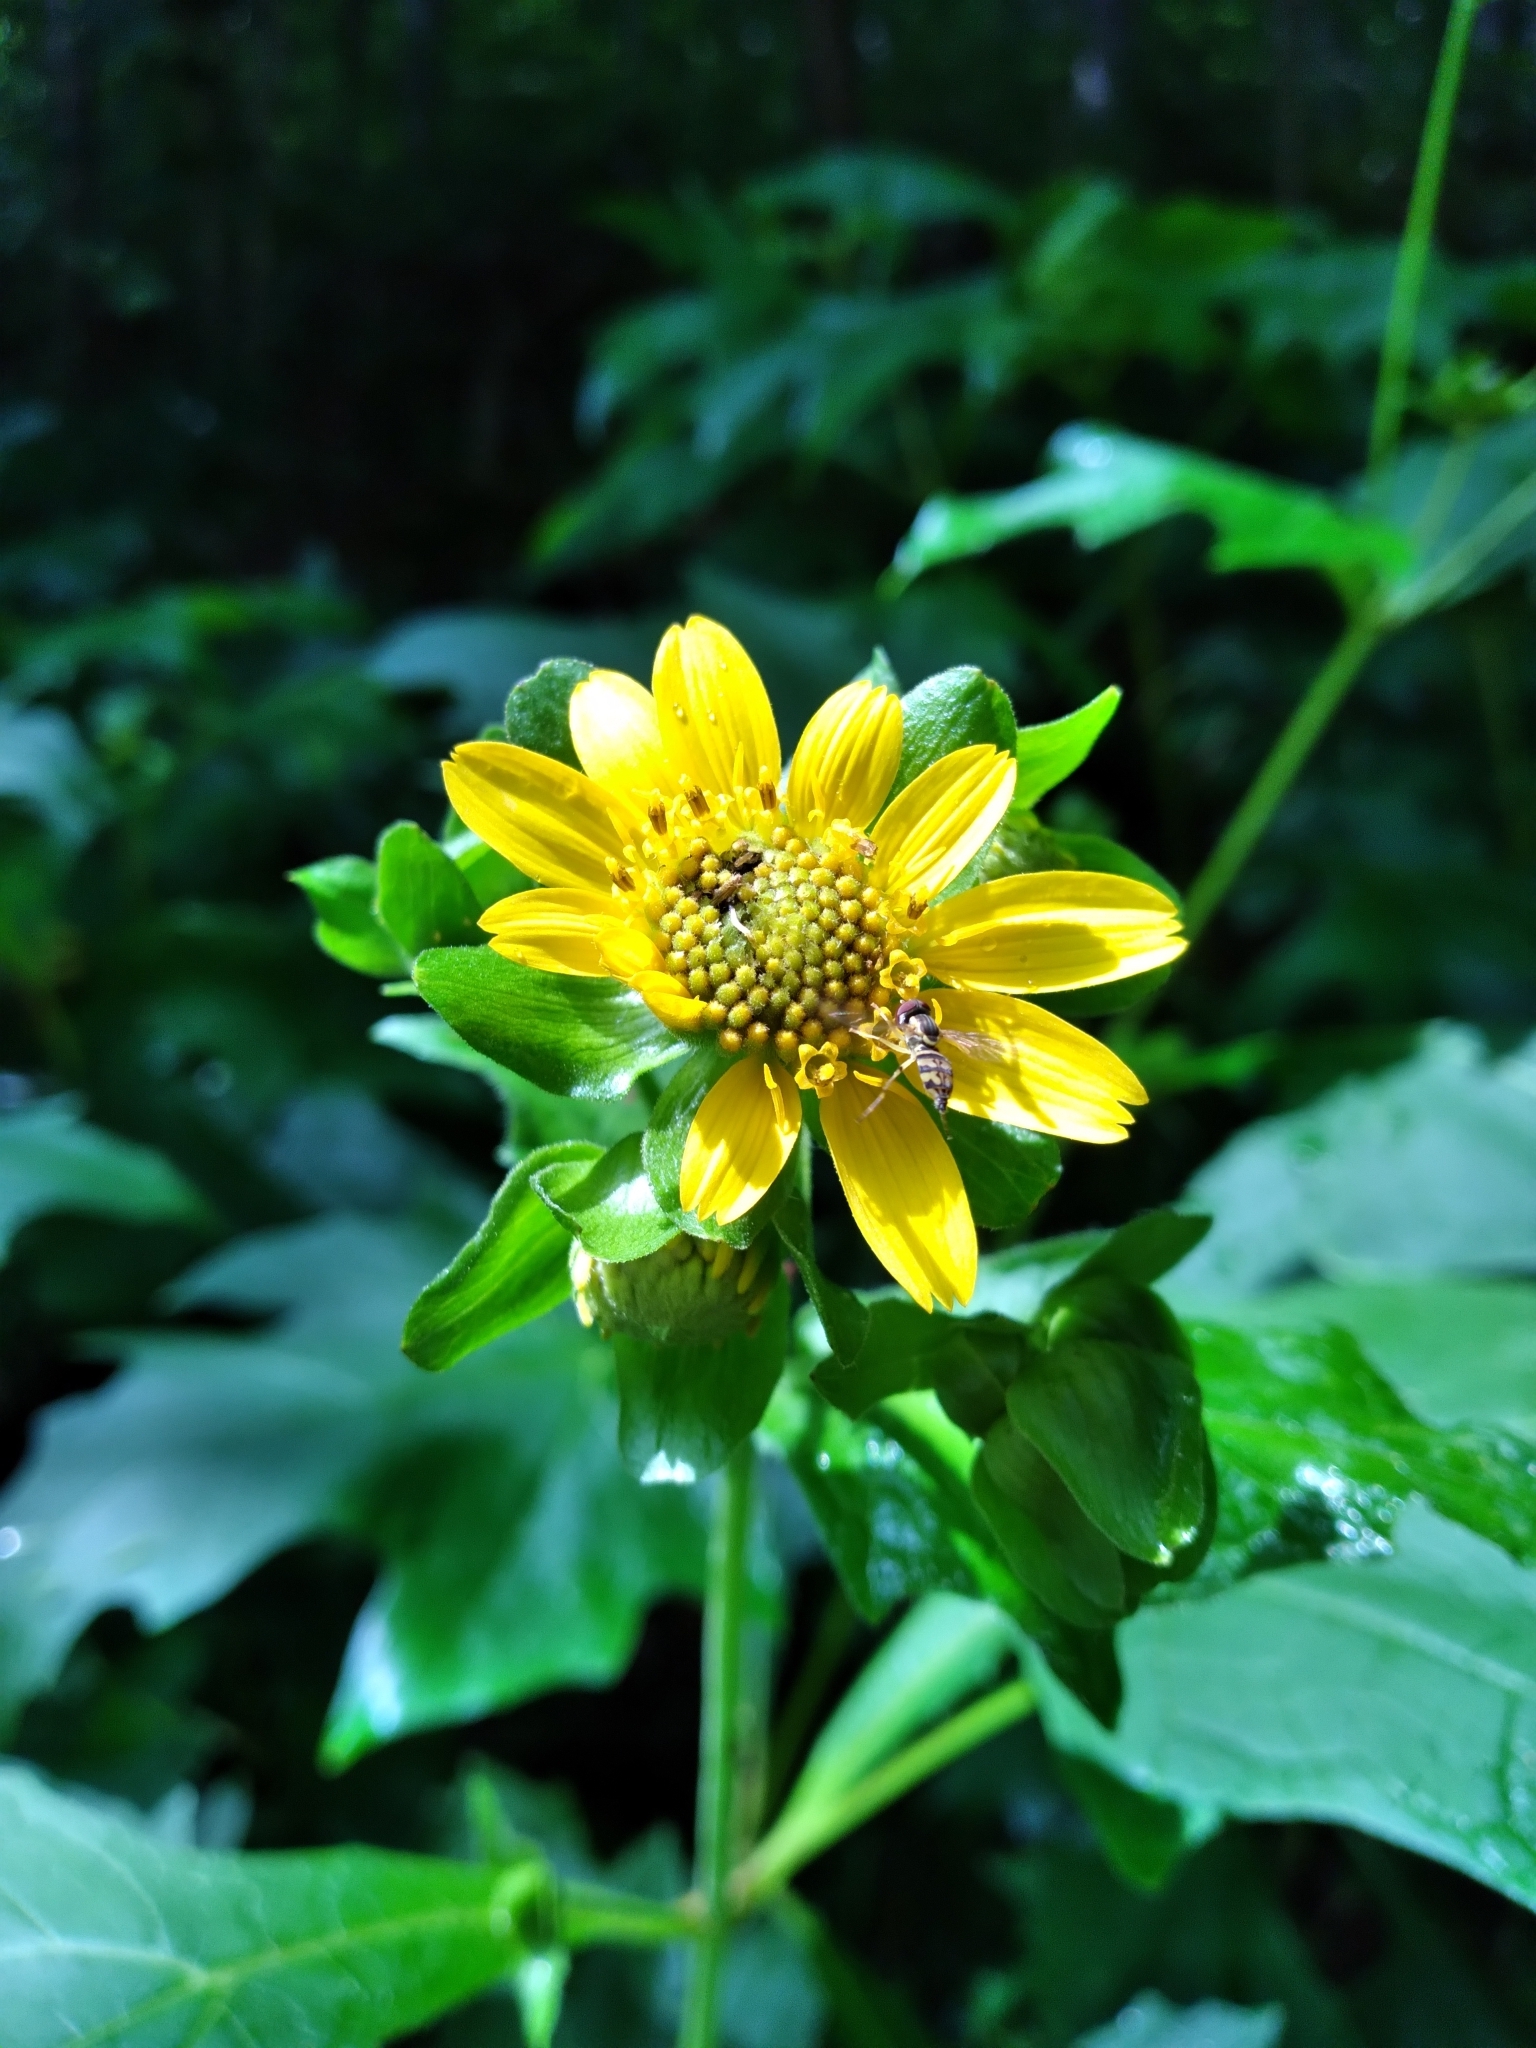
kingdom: Plantae
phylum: Tracheophyta
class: Magnoliopsida
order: Asterales
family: Asteraceae
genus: Smallanthus
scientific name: Smallanthus uvedalia
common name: Bear's-foot
